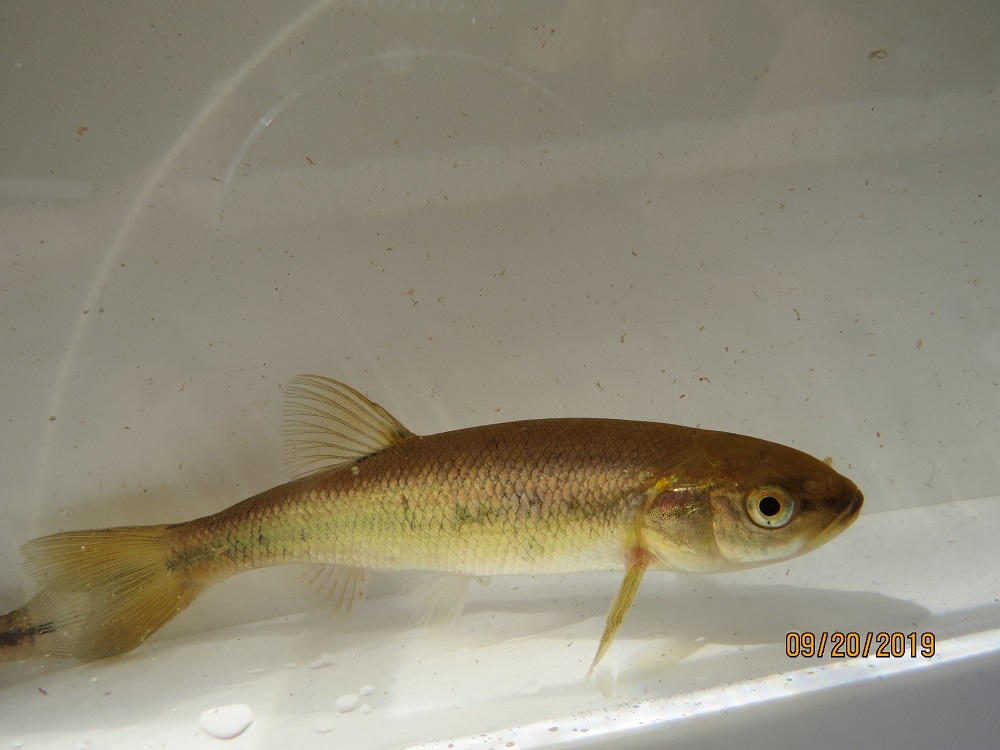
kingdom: Animalia
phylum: Chordata
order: Cypriniformes
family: Cyprinidae
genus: Semotilus
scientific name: Semotilus atromaculatus
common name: Creek chub
